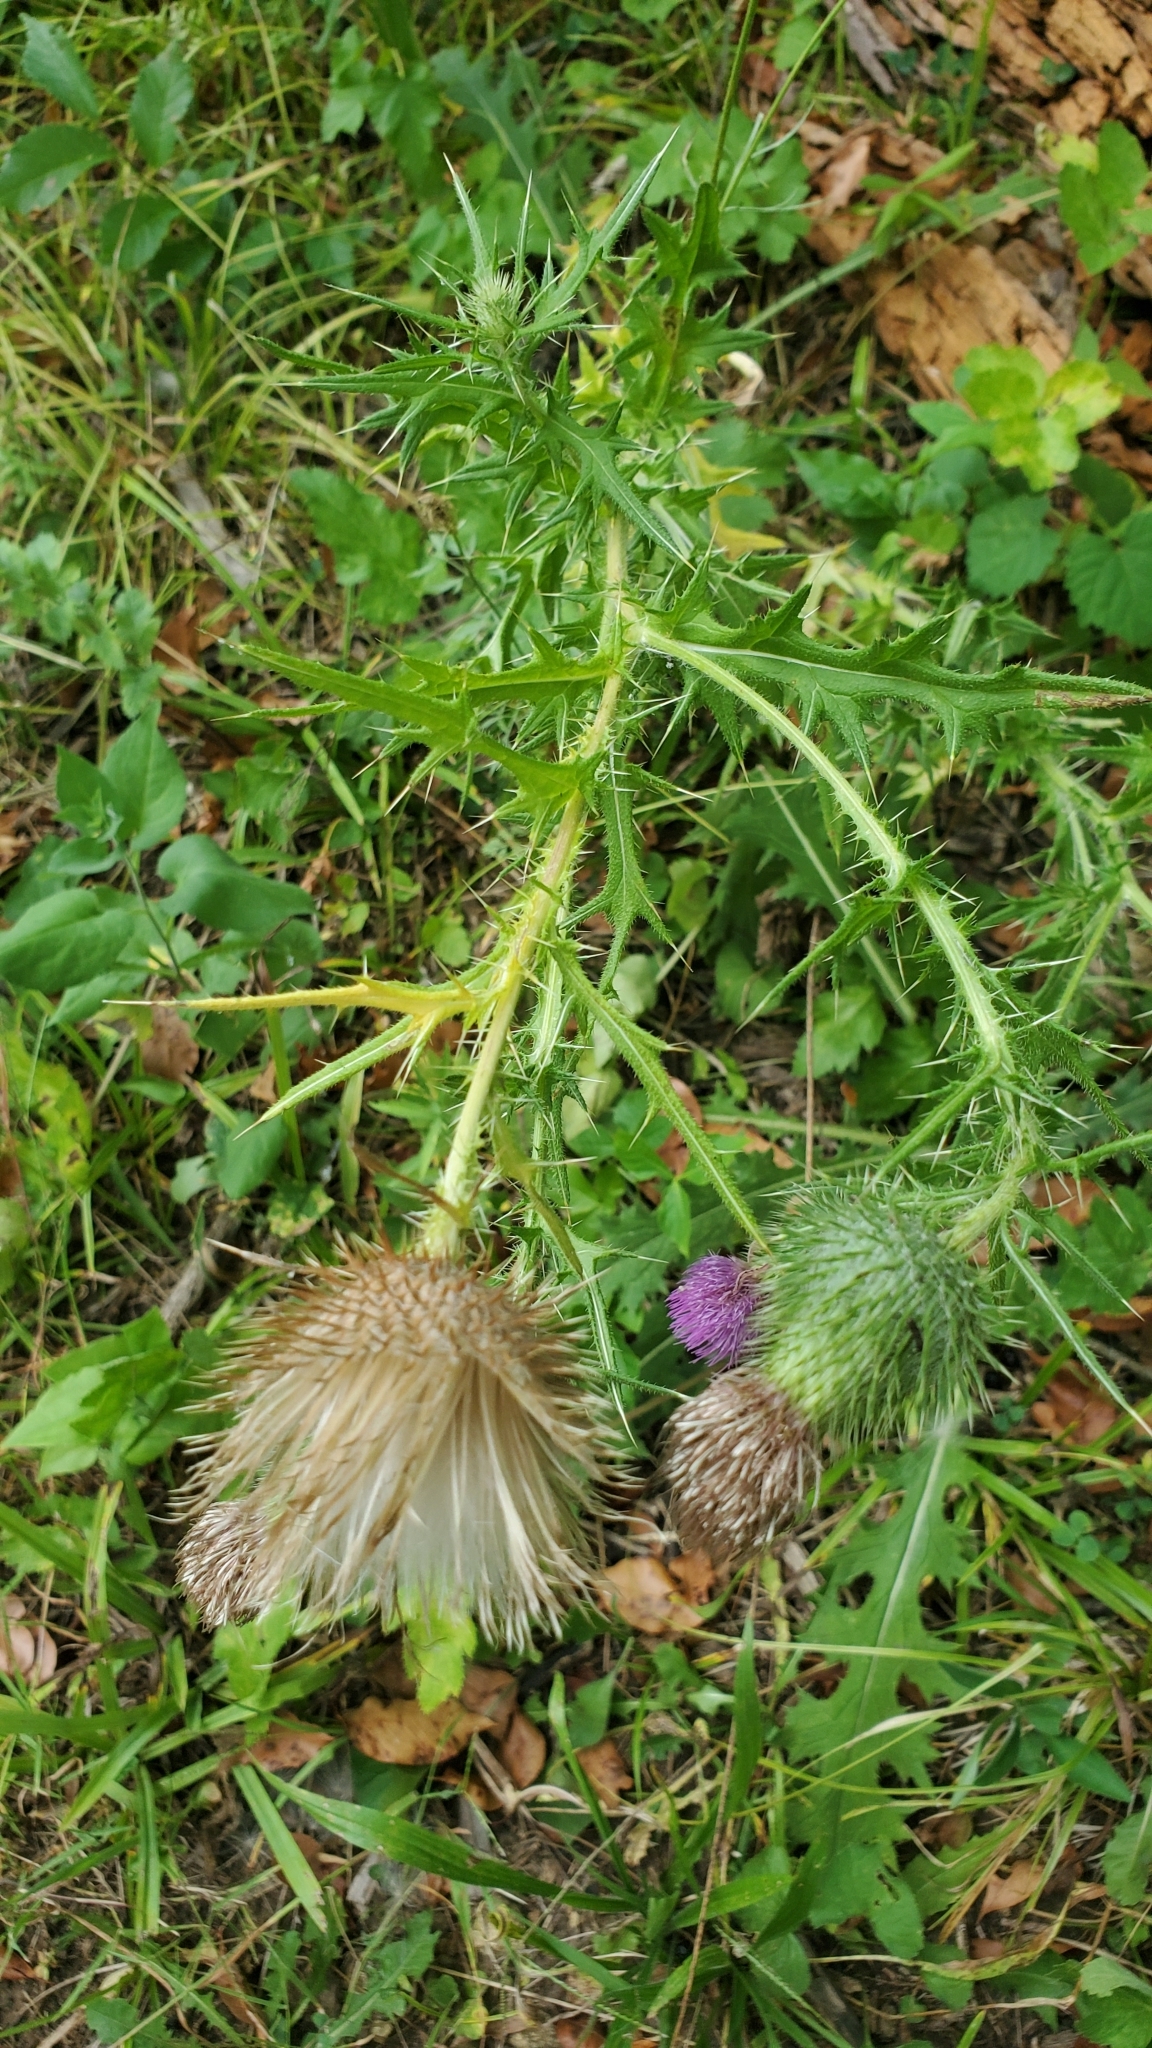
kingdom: Plantae
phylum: Tracheophyta
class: Magnoliopsida
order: Asterales
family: Asteraceae
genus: Cirsium
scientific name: Cirsium vulgare
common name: Bull thistle
